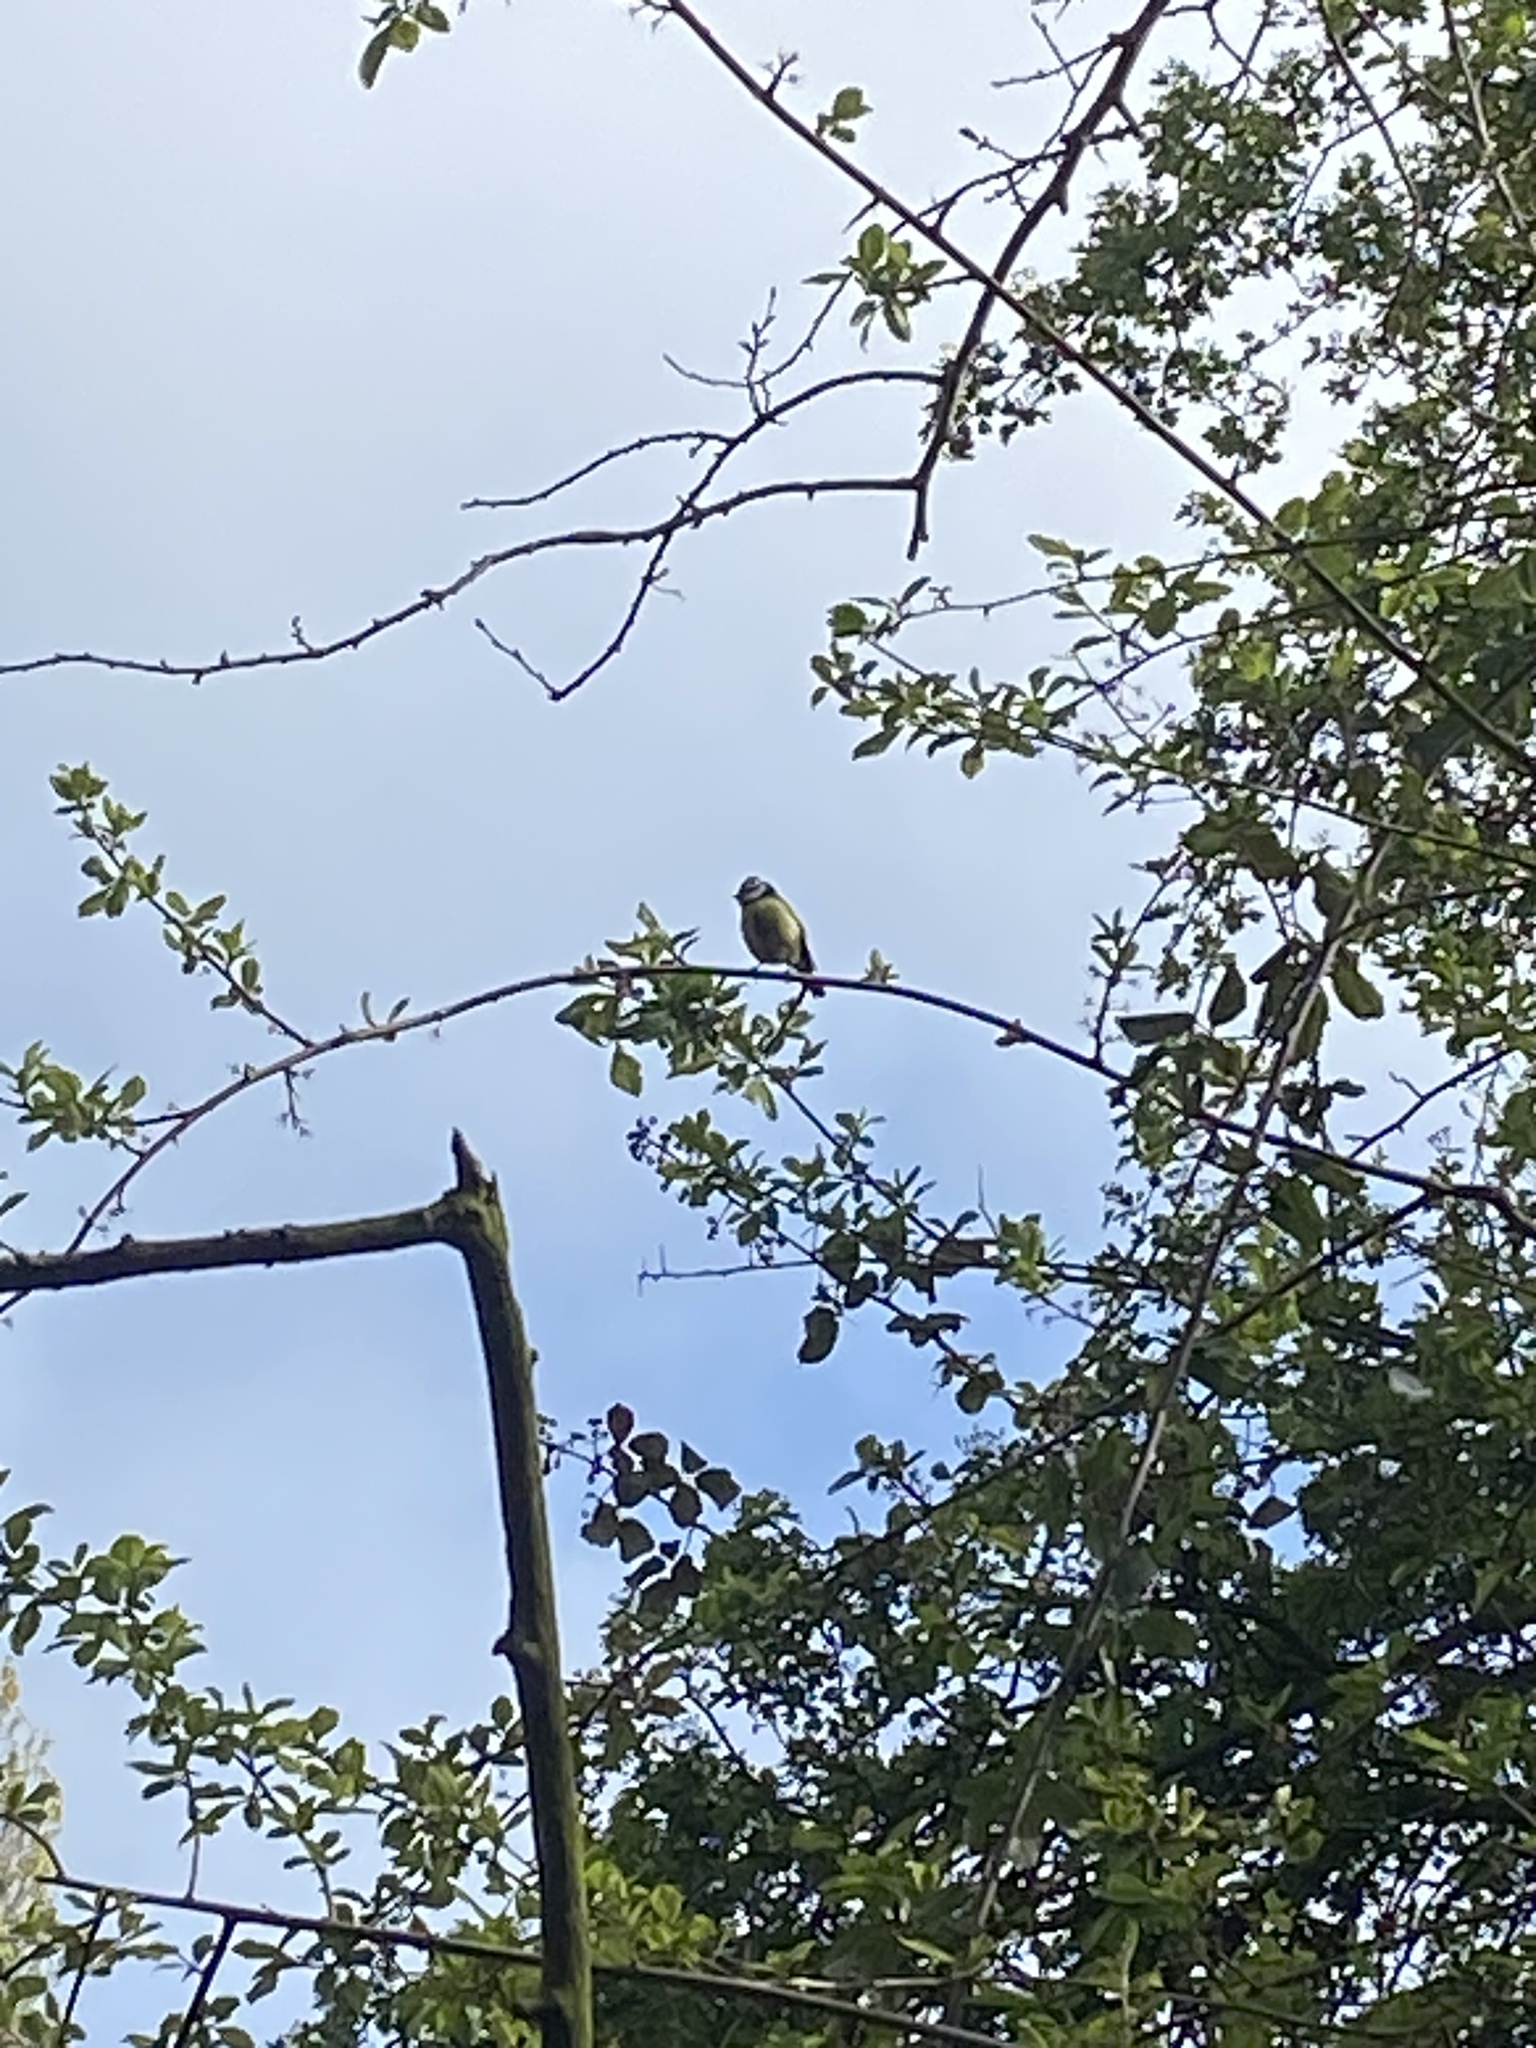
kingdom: Animalia
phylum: Chordata
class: Aves
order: Passeriformes
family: Paridae
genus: Cyanistes
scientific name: Cyanistes caeruleus
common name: Eurasian blue tit
